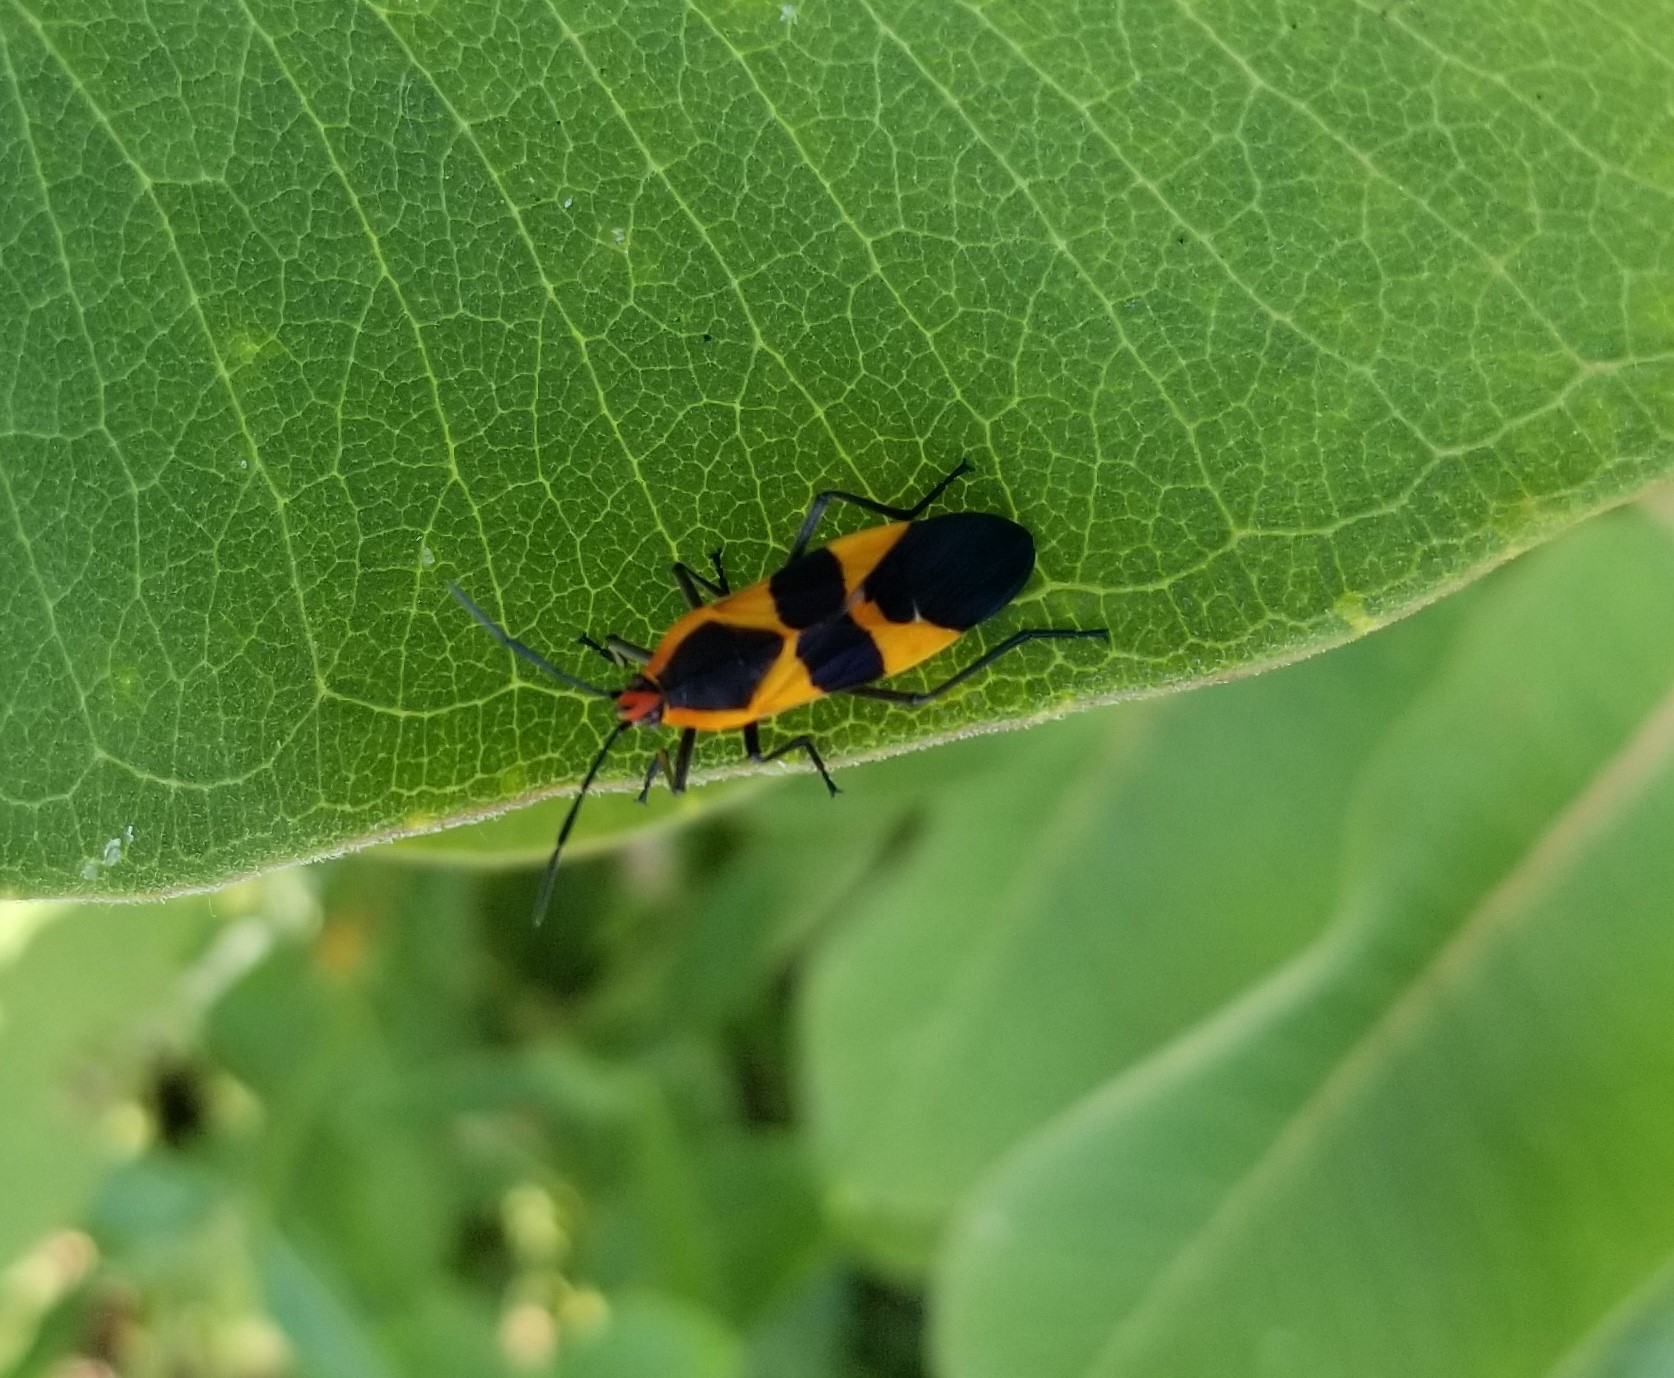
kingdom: Animalia
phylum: Arthropoda
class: Insecta
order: Hemiptera
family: Lygaeidae
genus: Oncopeltus
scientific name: Oncopeltus fasciatus
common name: Large milkweed bug
